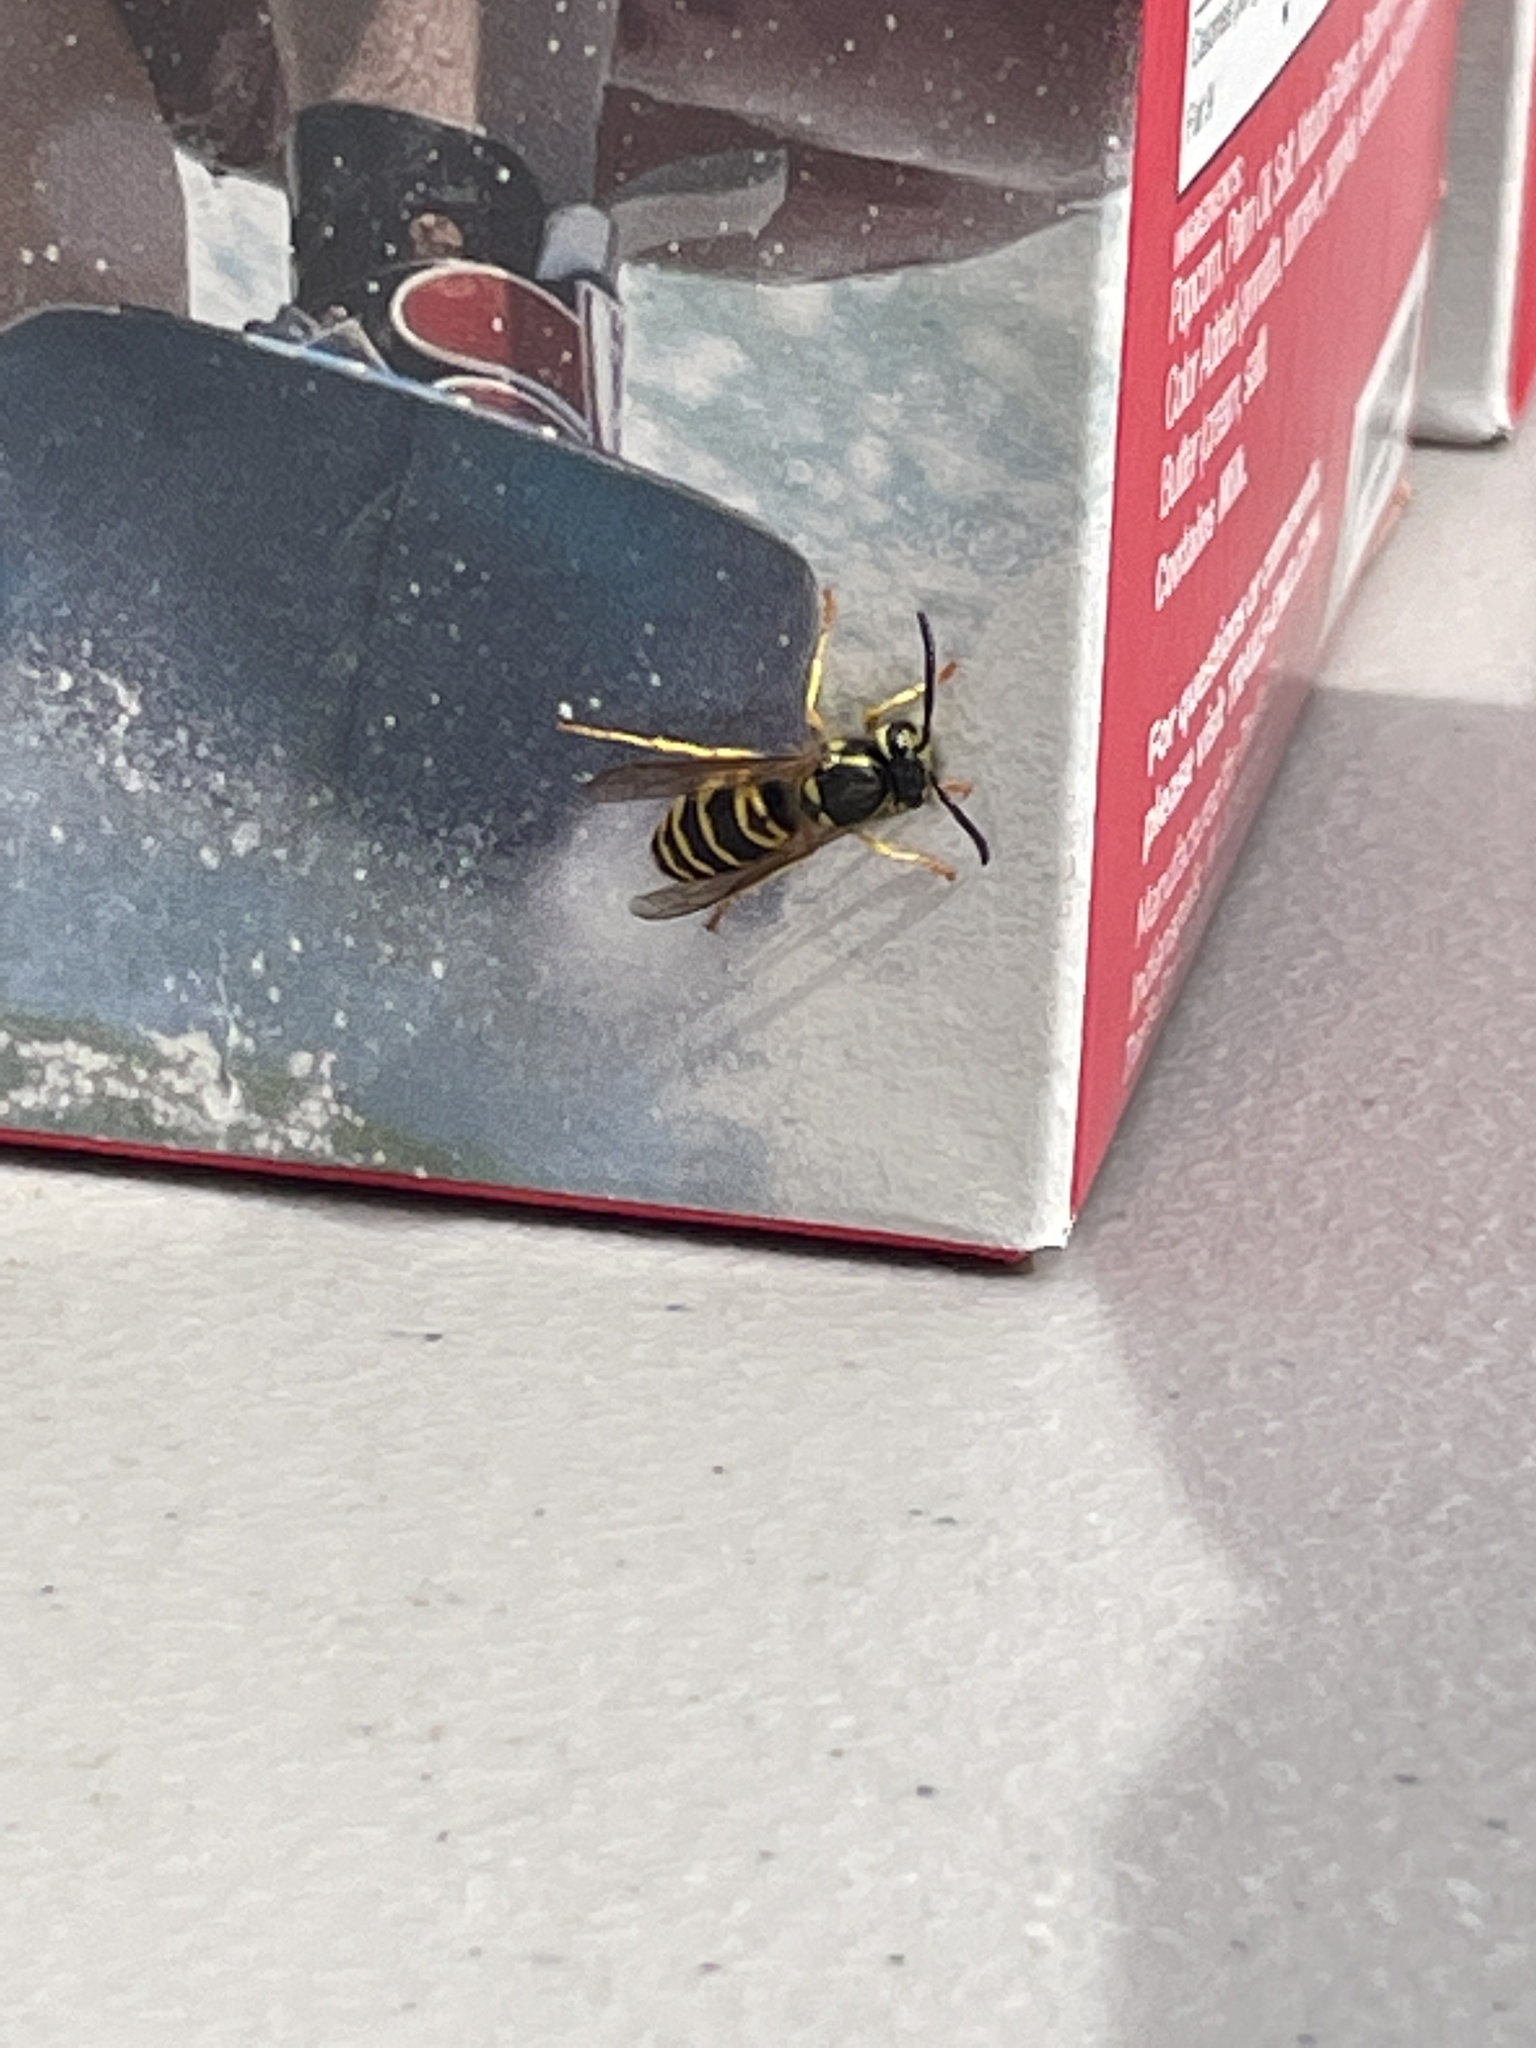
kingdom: Animalia
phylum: Arthropoda
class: Insecta
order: Hymenoptera
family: Vespidae
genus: Vespula
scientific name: Vespula maculifrons
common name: Eastern yellowjacket
